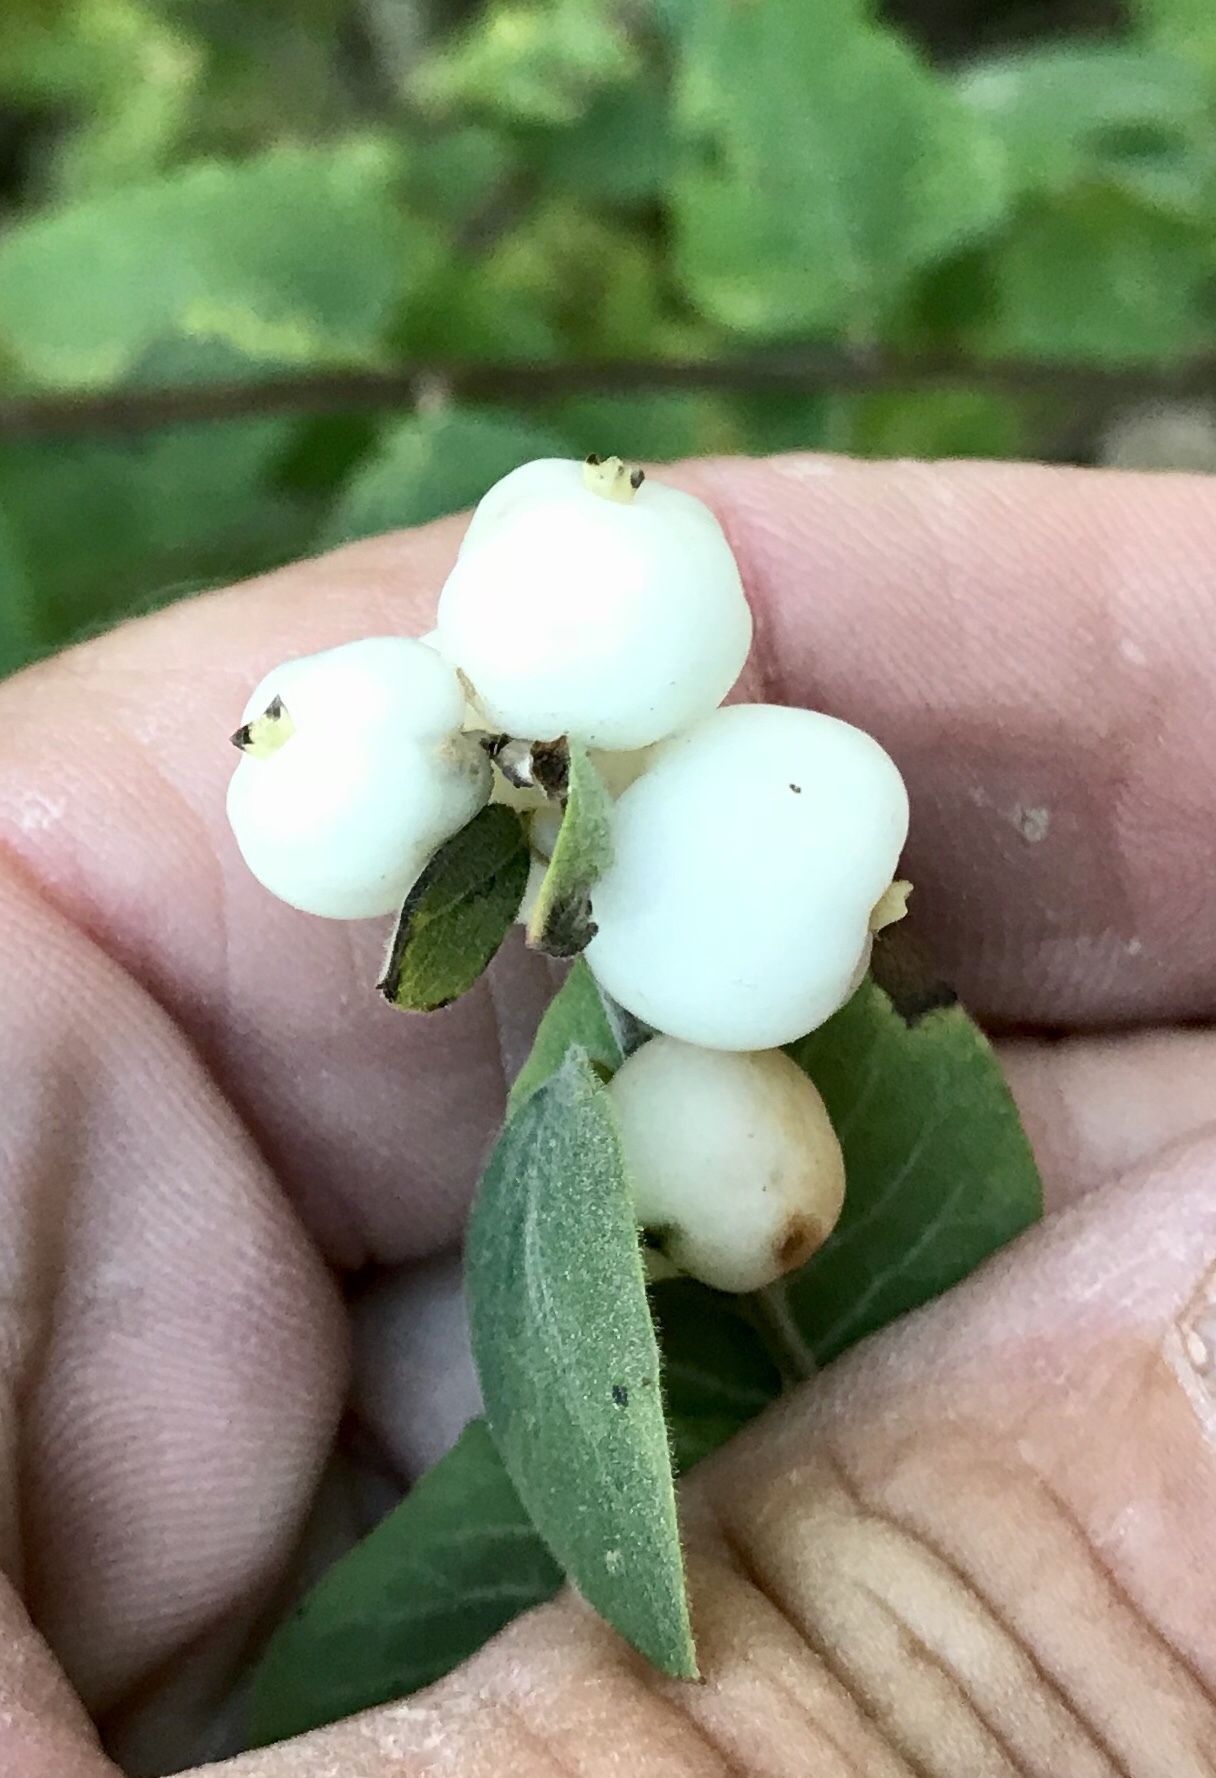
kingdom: Plantae
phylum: Tracheophyta
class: Magnoliopsida
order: Dipsacales
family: Caprifoliaceae
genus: Symphoricarpos
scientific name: Symphoricarpos rotundifolius
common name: Round-leaved snowberry
